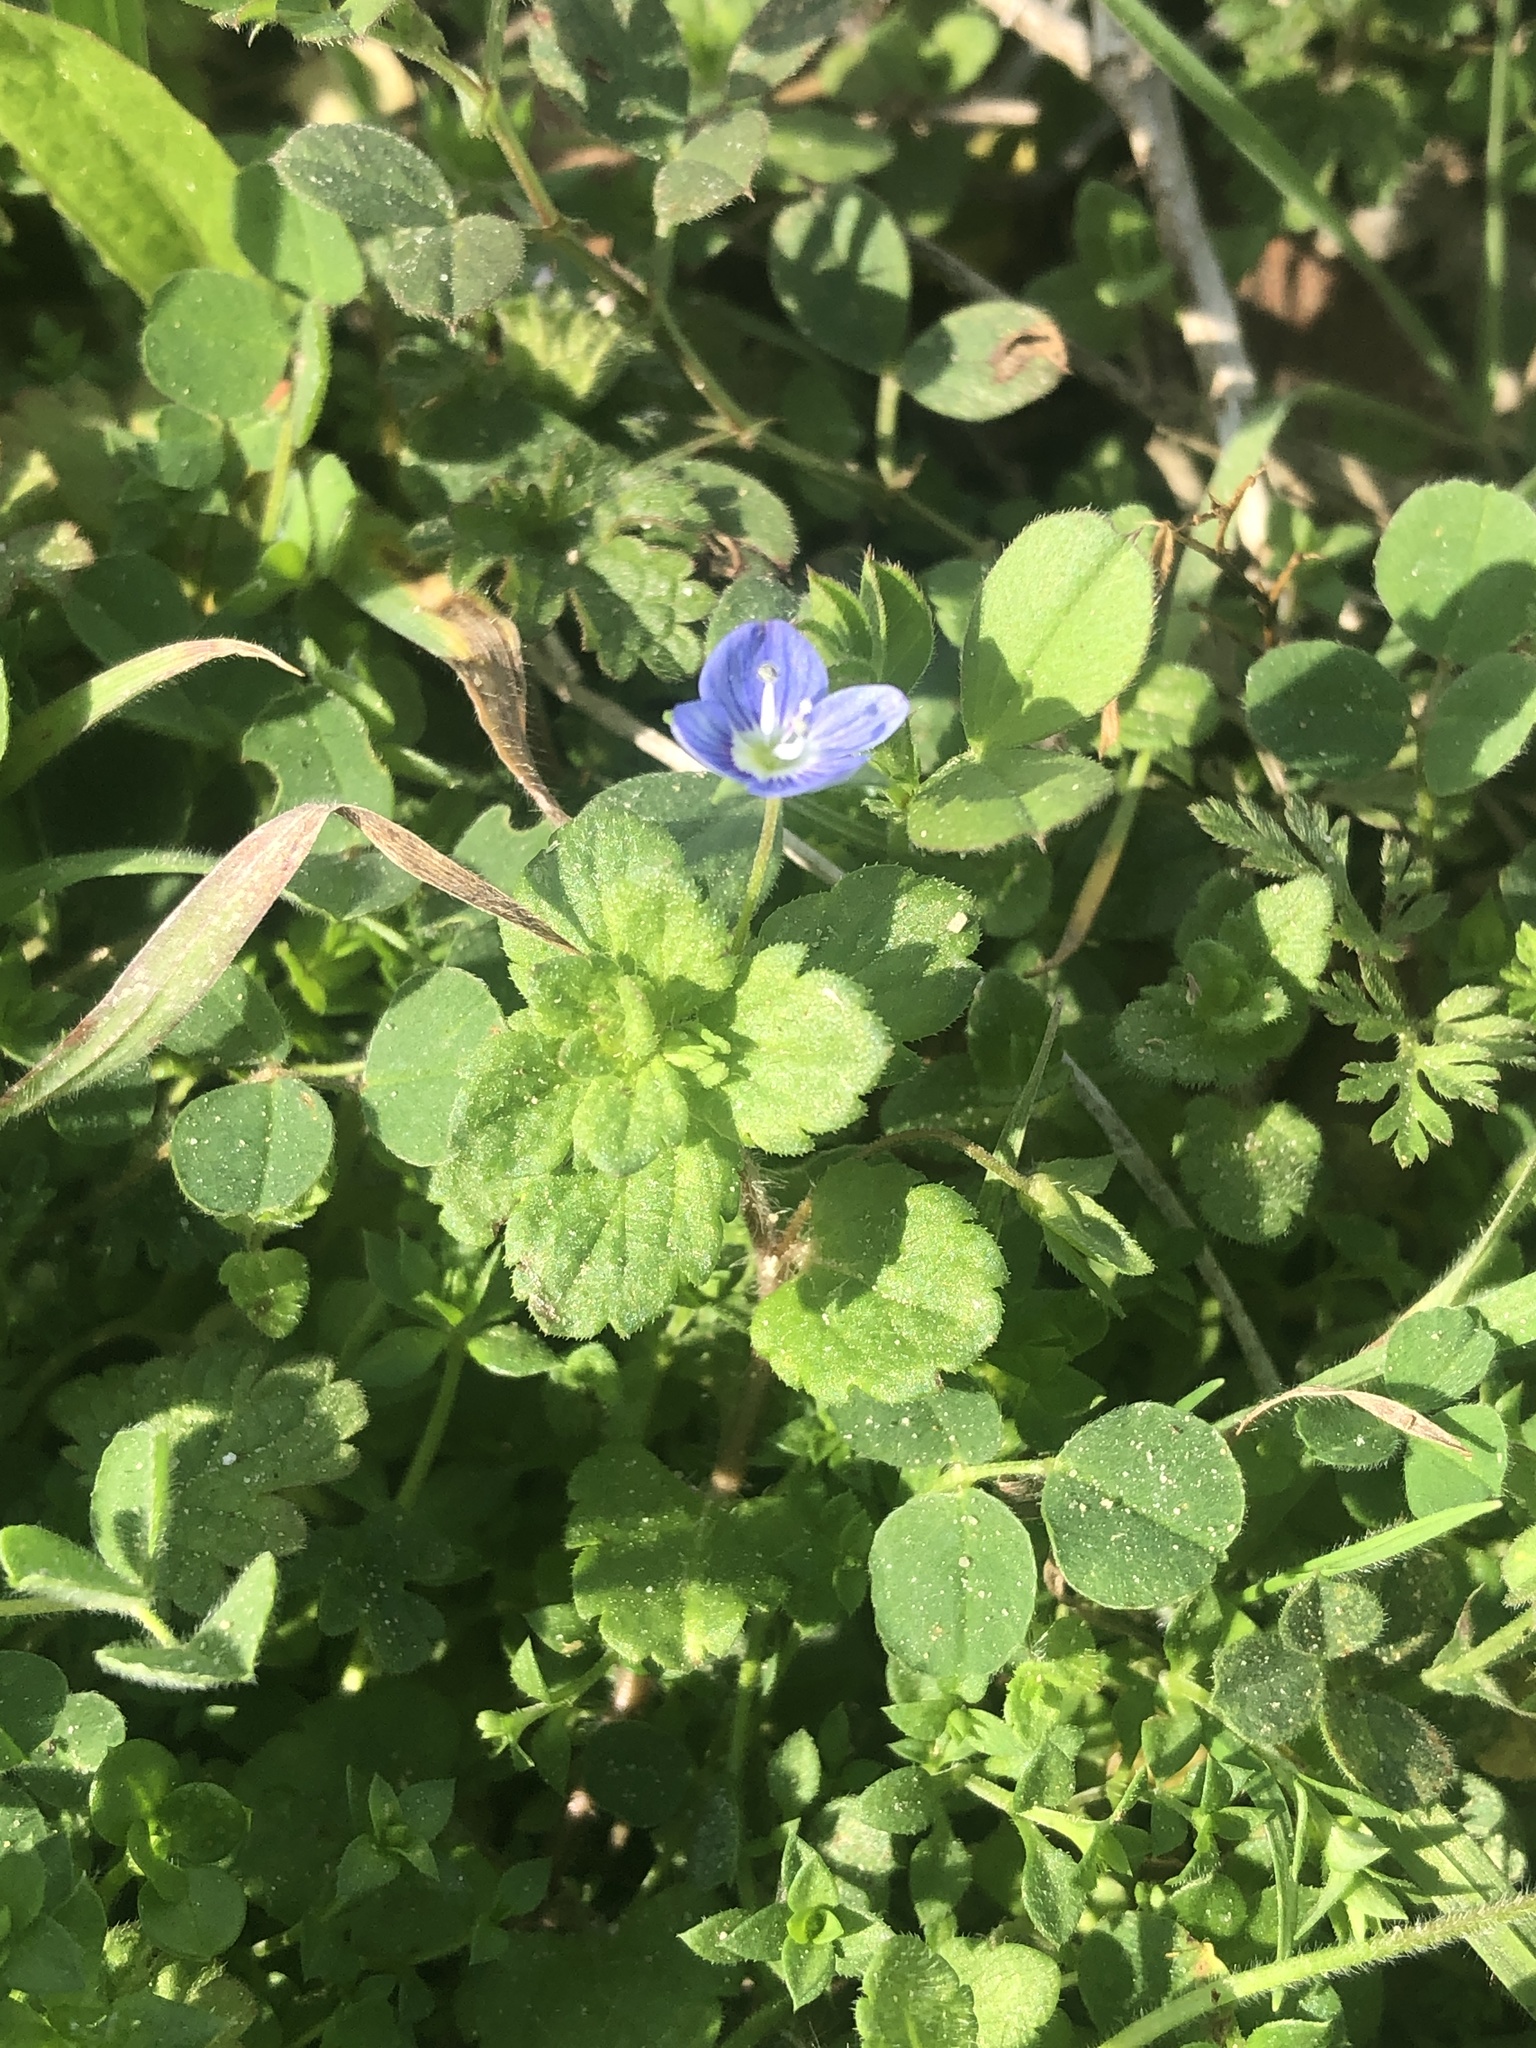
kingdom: Plantae
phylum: Tracheophyta
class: Magnoliopsida
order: Lamiales
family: Plantaginaceae
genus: Veronica
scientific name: Veronica persica
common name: Common field-speedwell
